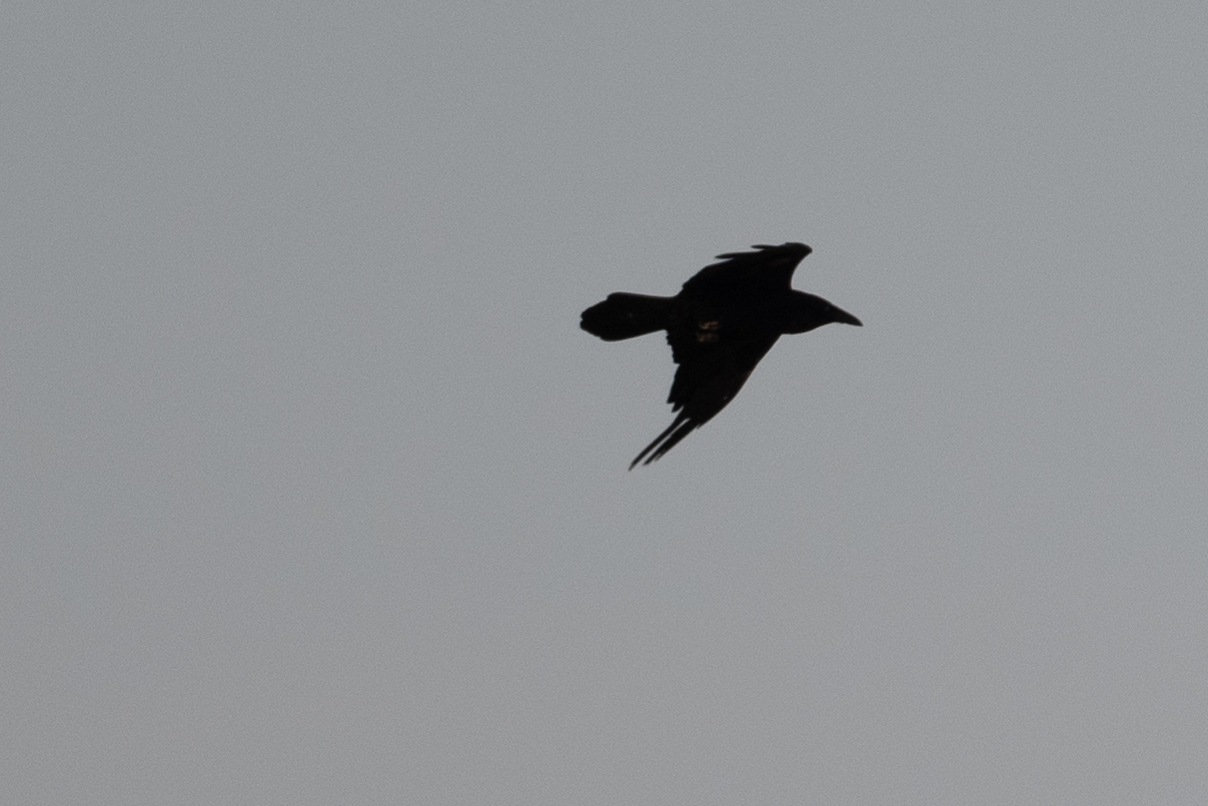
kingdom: Animalia
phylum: Chordata
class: Aves
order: Passeriformes
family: Corvidae
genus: Corvus
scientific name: Corvus corax
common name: Common raven
